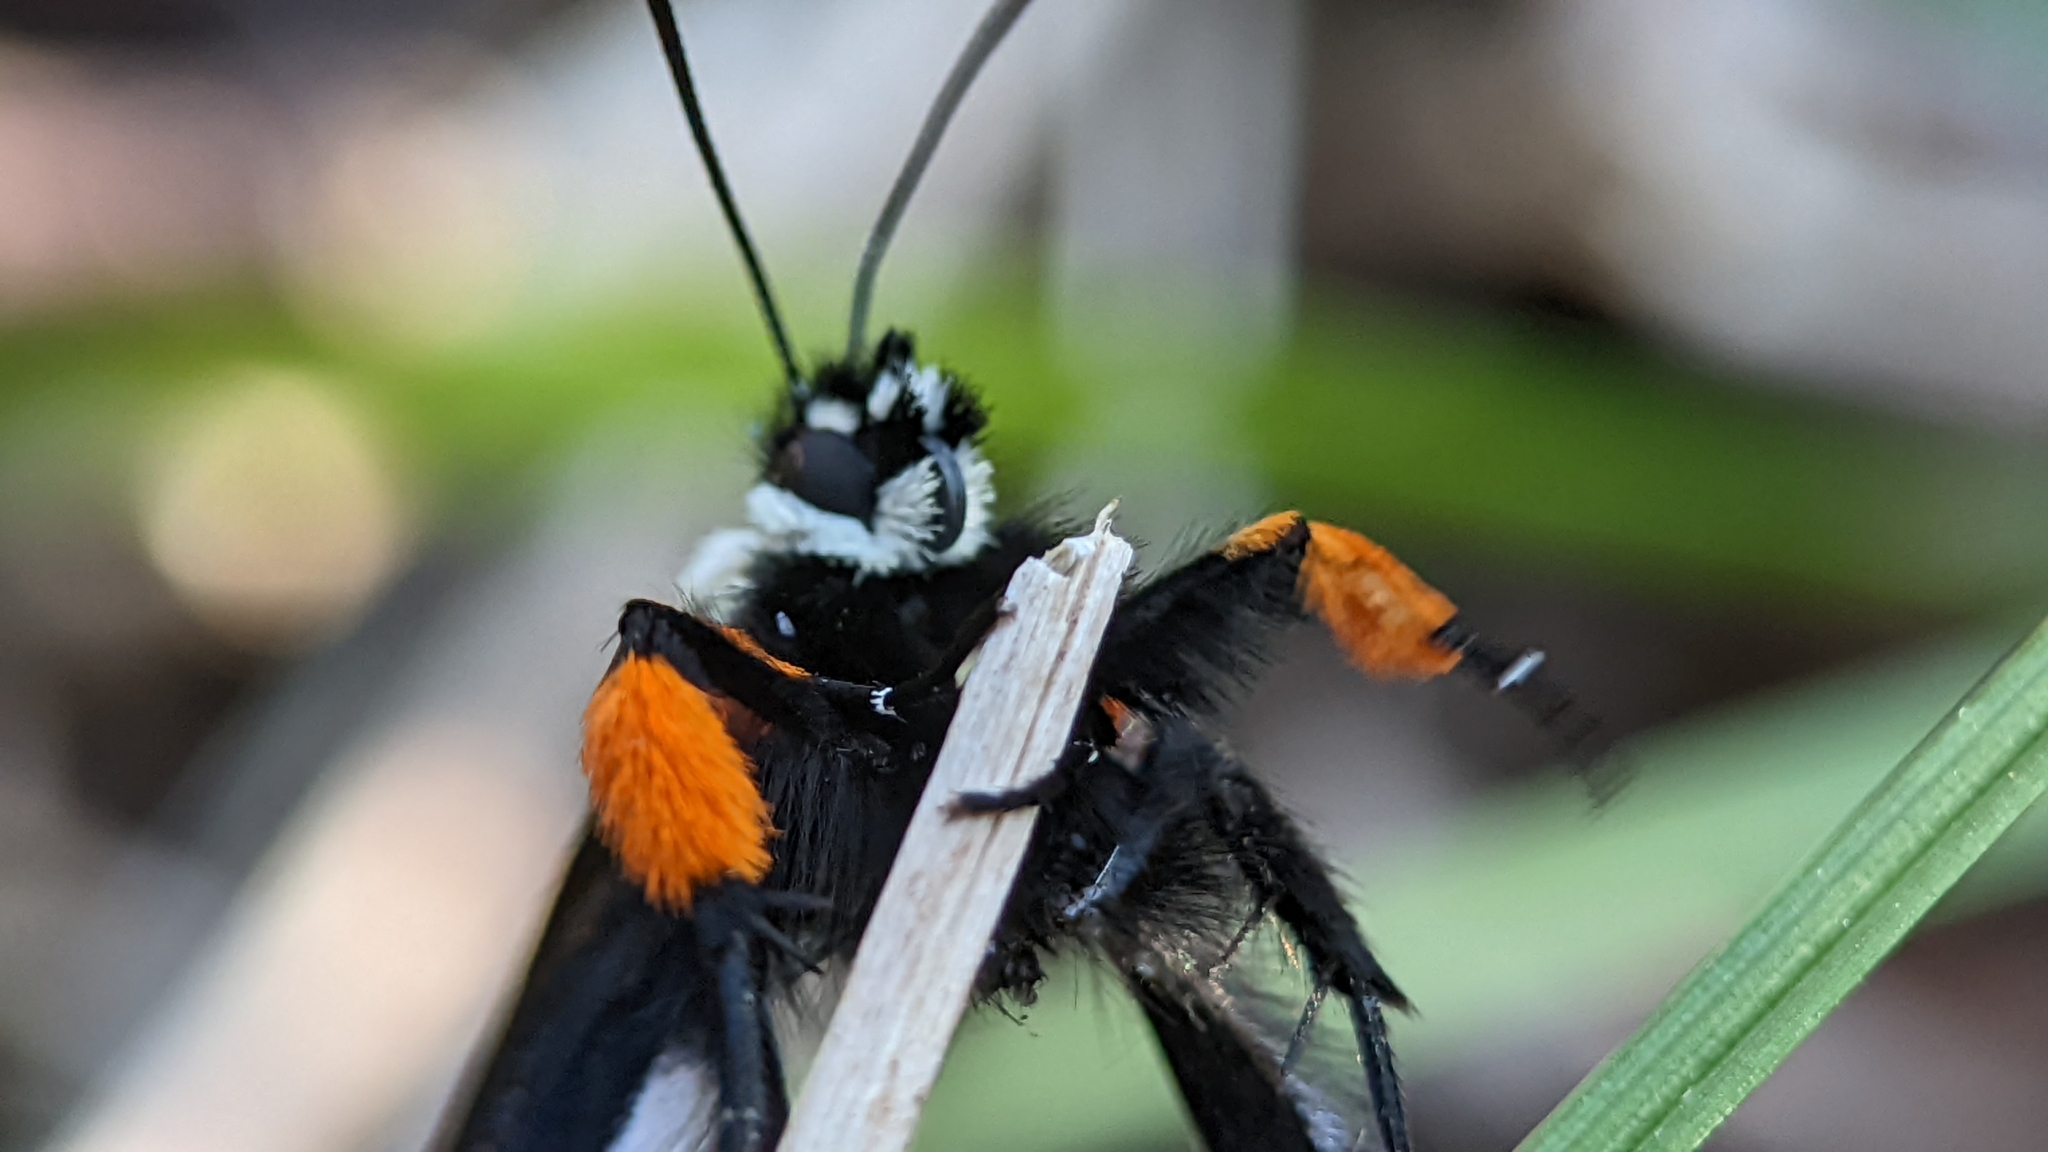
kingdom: Animalia
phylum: Arthropoda
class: Insecta
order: Lepidoptera
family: Noctuidae
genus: Alypia
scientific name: Alypia octomaculata
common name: Eight-spotted forester
